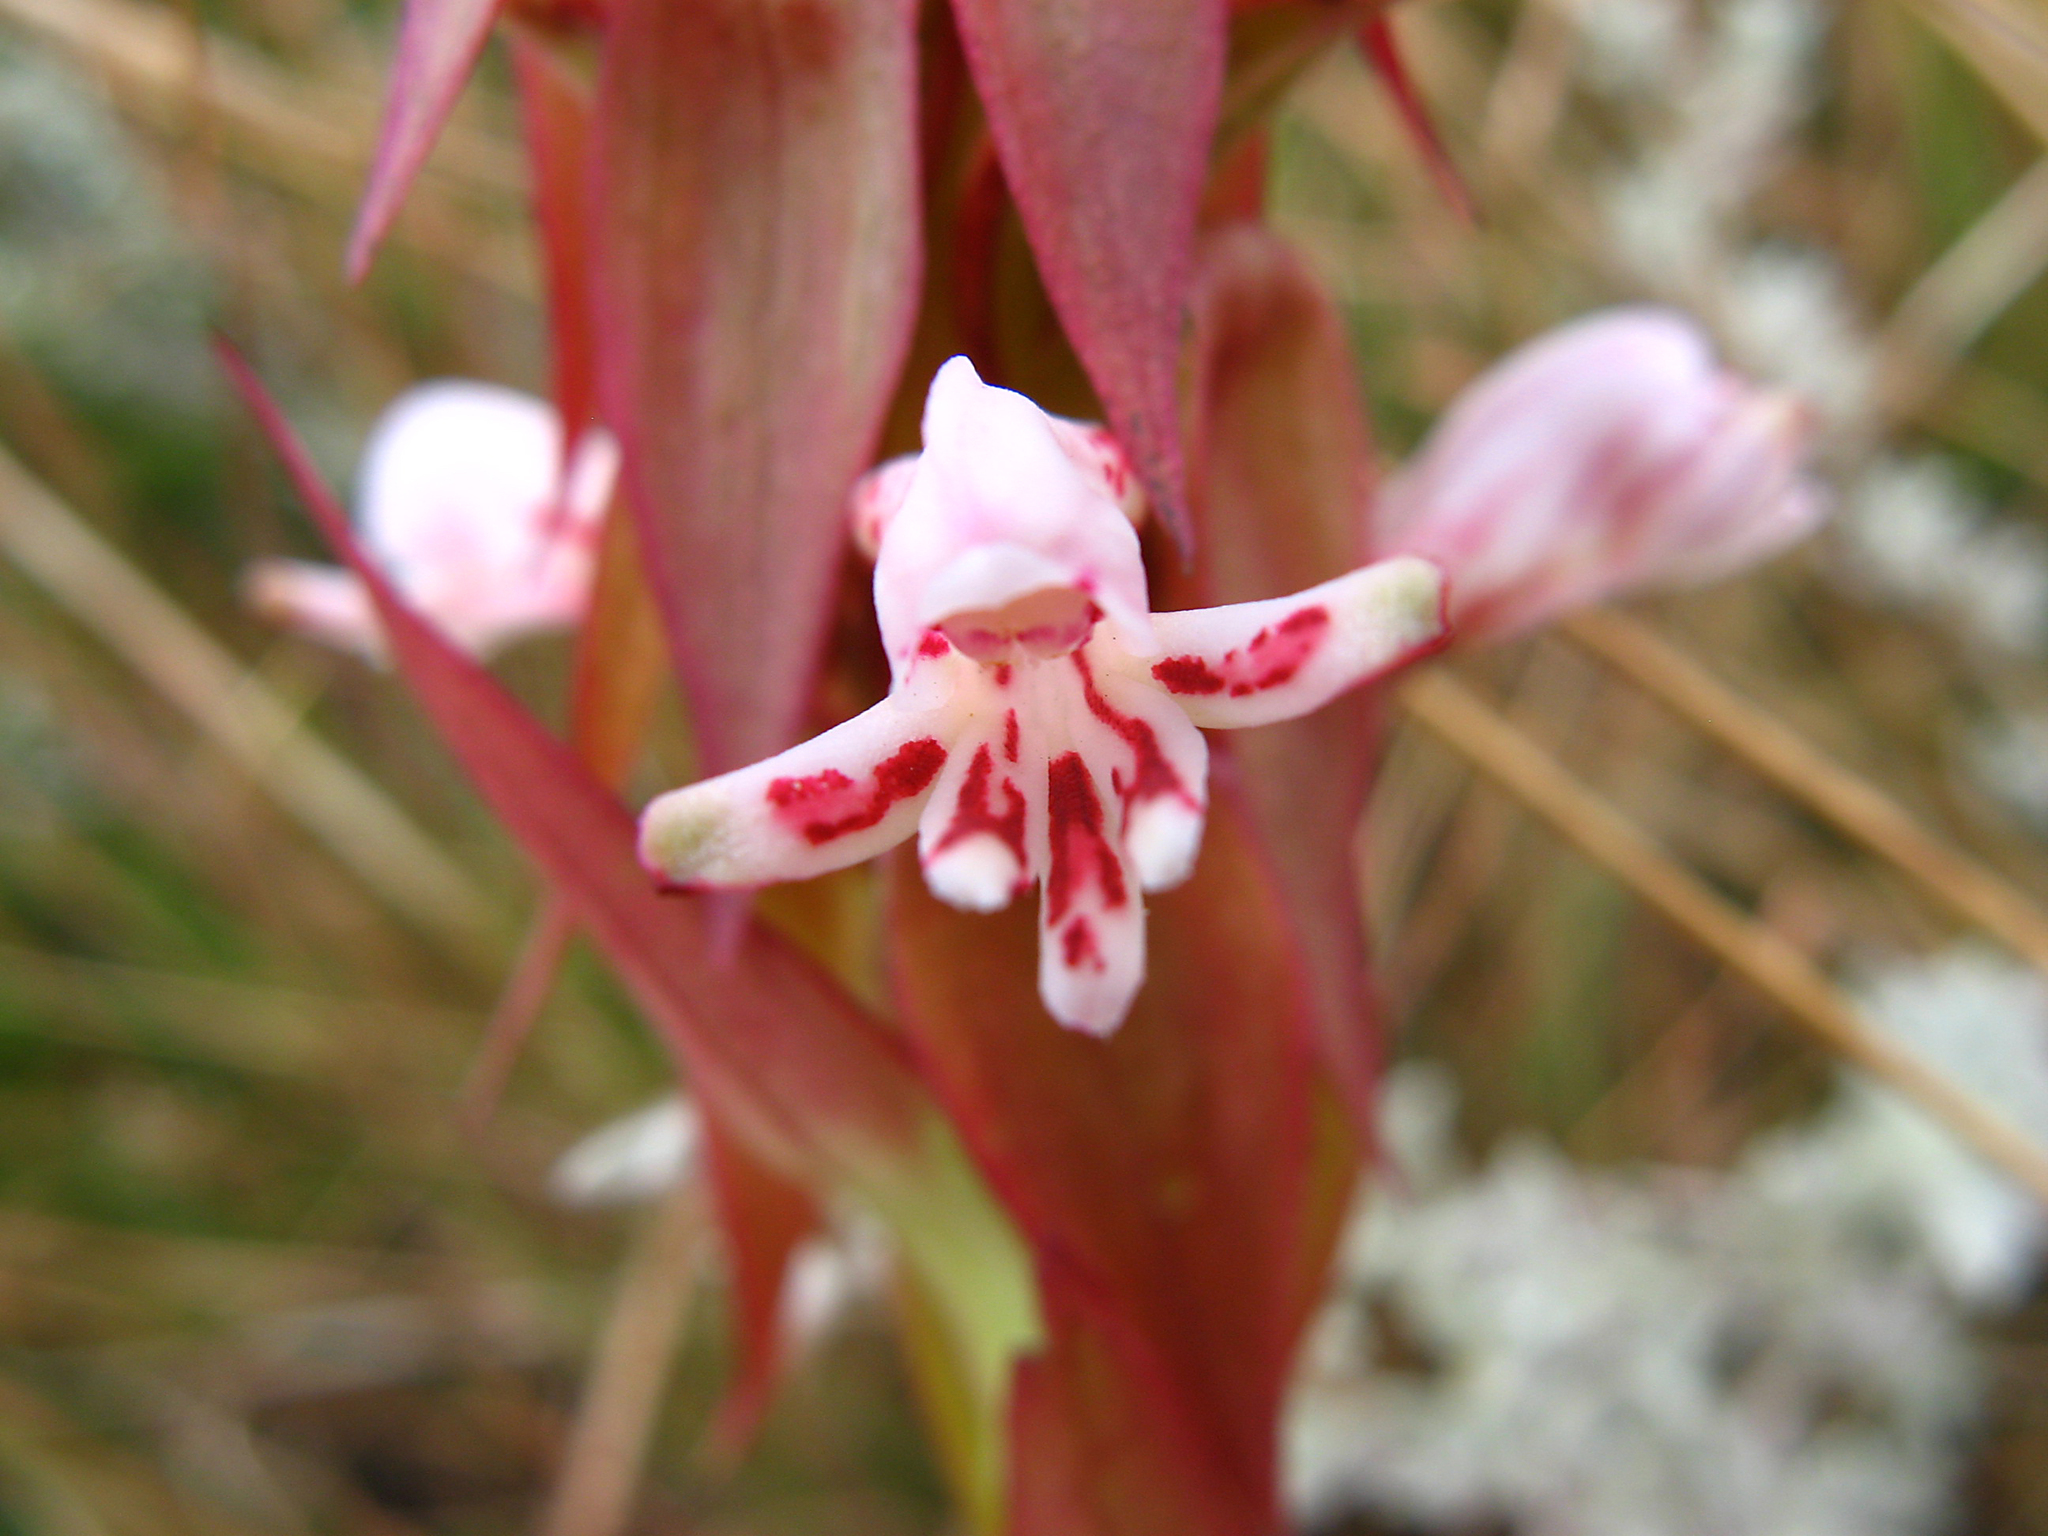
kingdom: Plantae
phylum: Tracheophyta
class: Liliopsida
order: Asparagales
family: Orchidaceae
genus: Satyrium
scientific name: Satyrium cristatum
